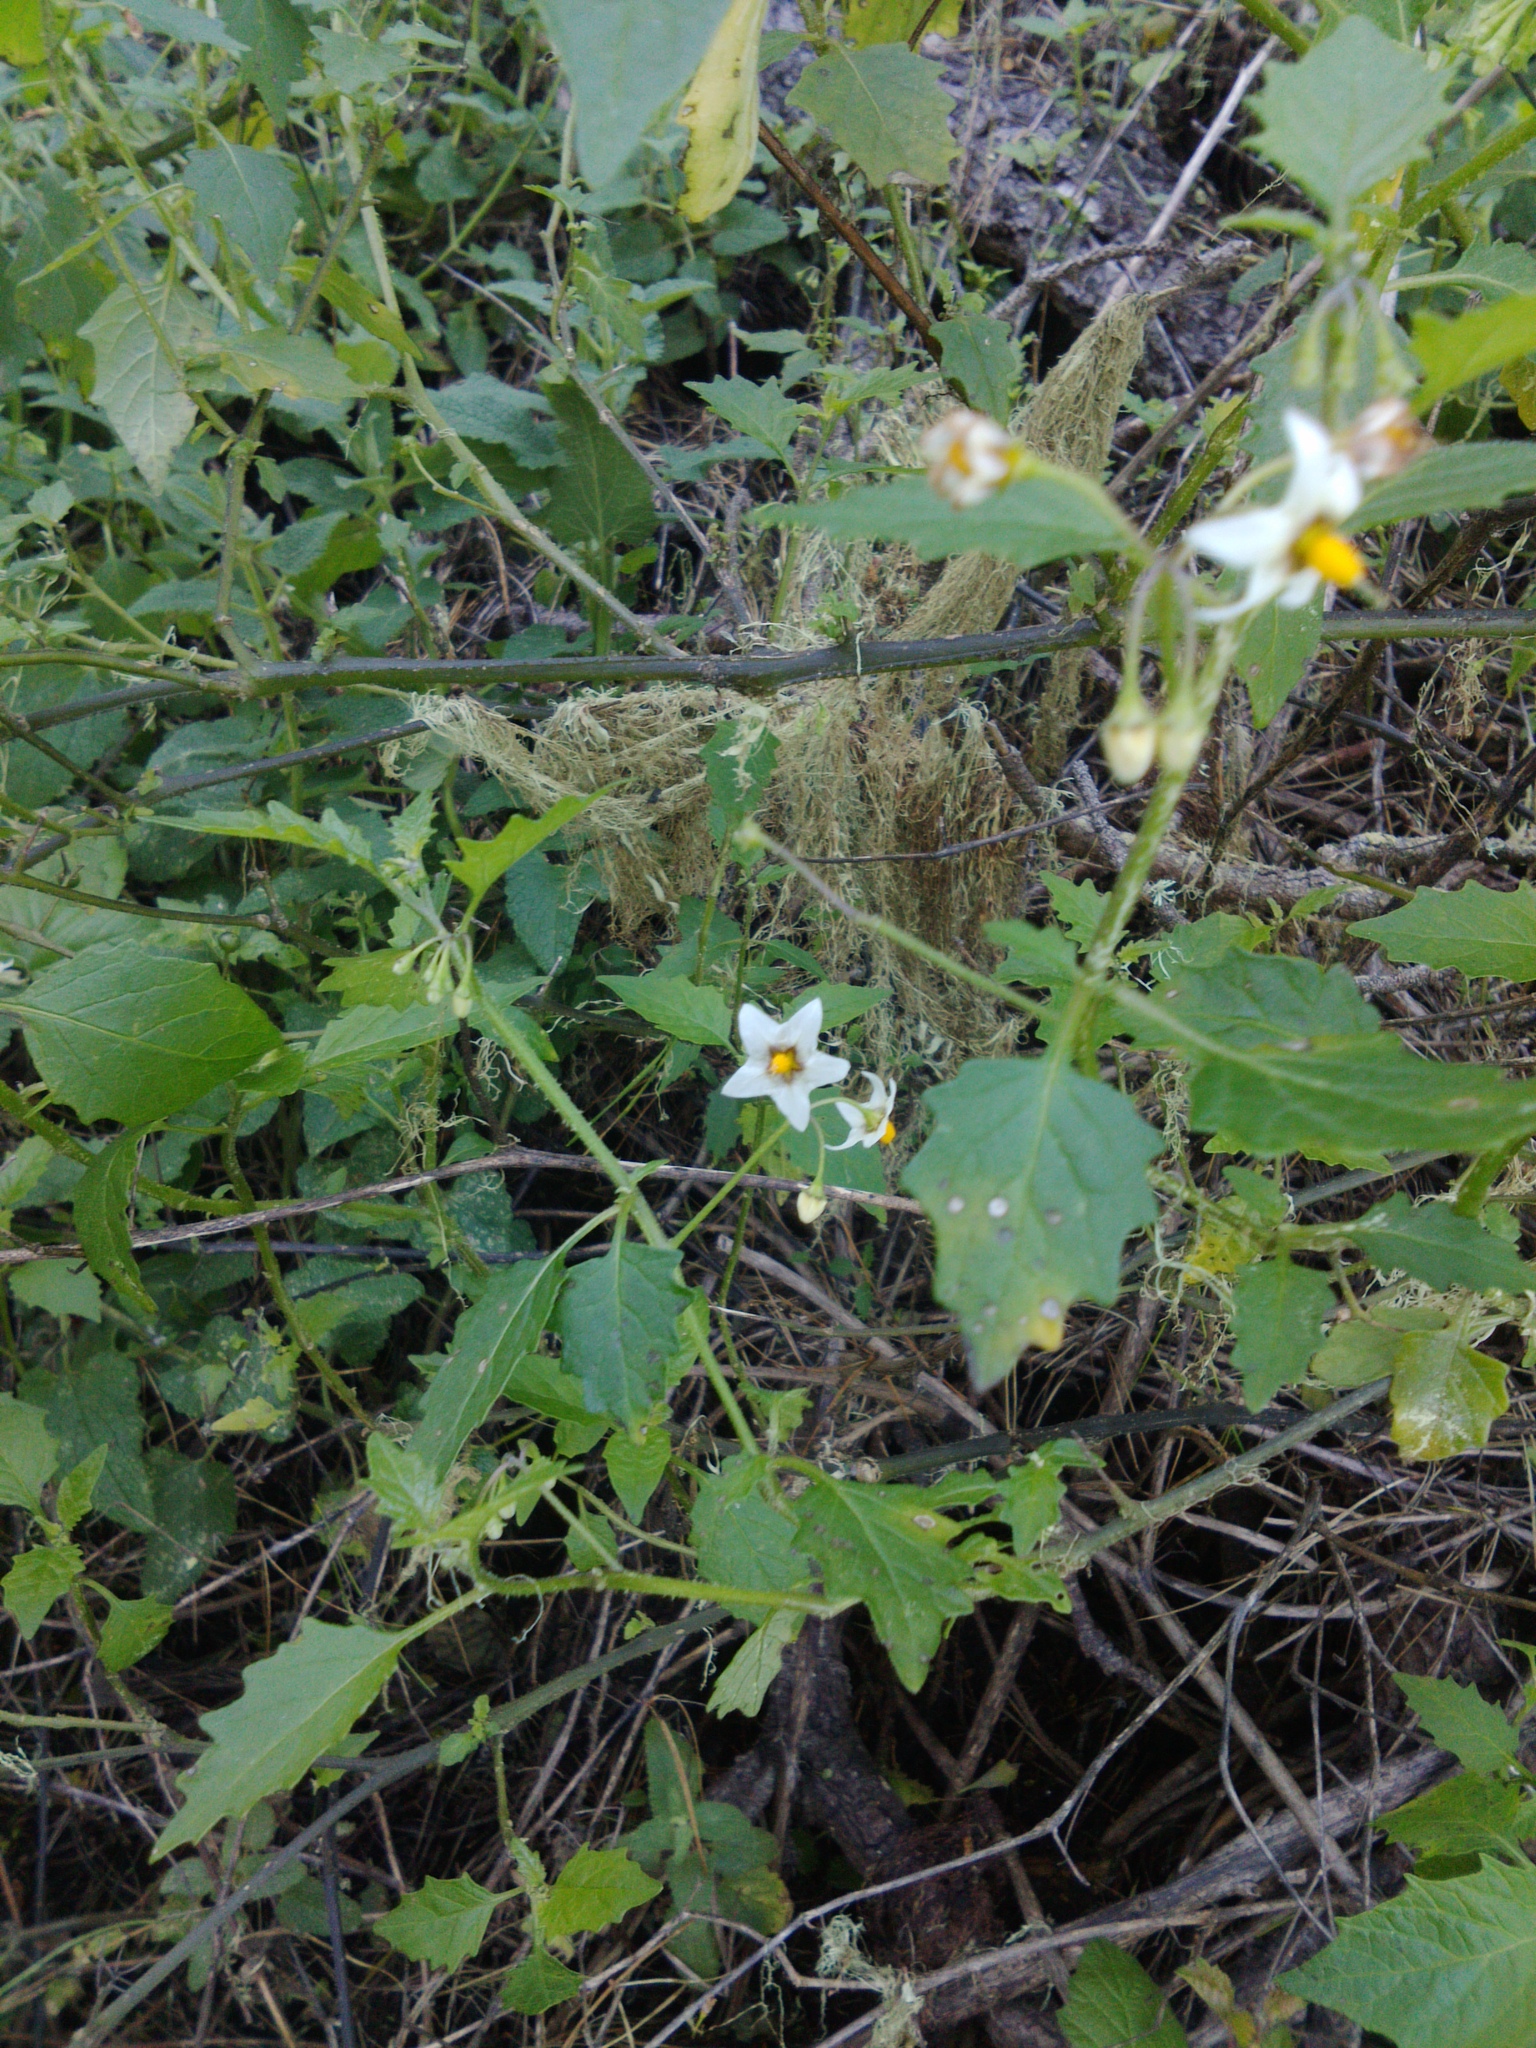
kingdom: Plantae
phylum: Tracheophyta
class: Magnoliopsida
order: Solanales
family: Solanaceae
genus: Solanum
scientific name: Solanum douglasii
